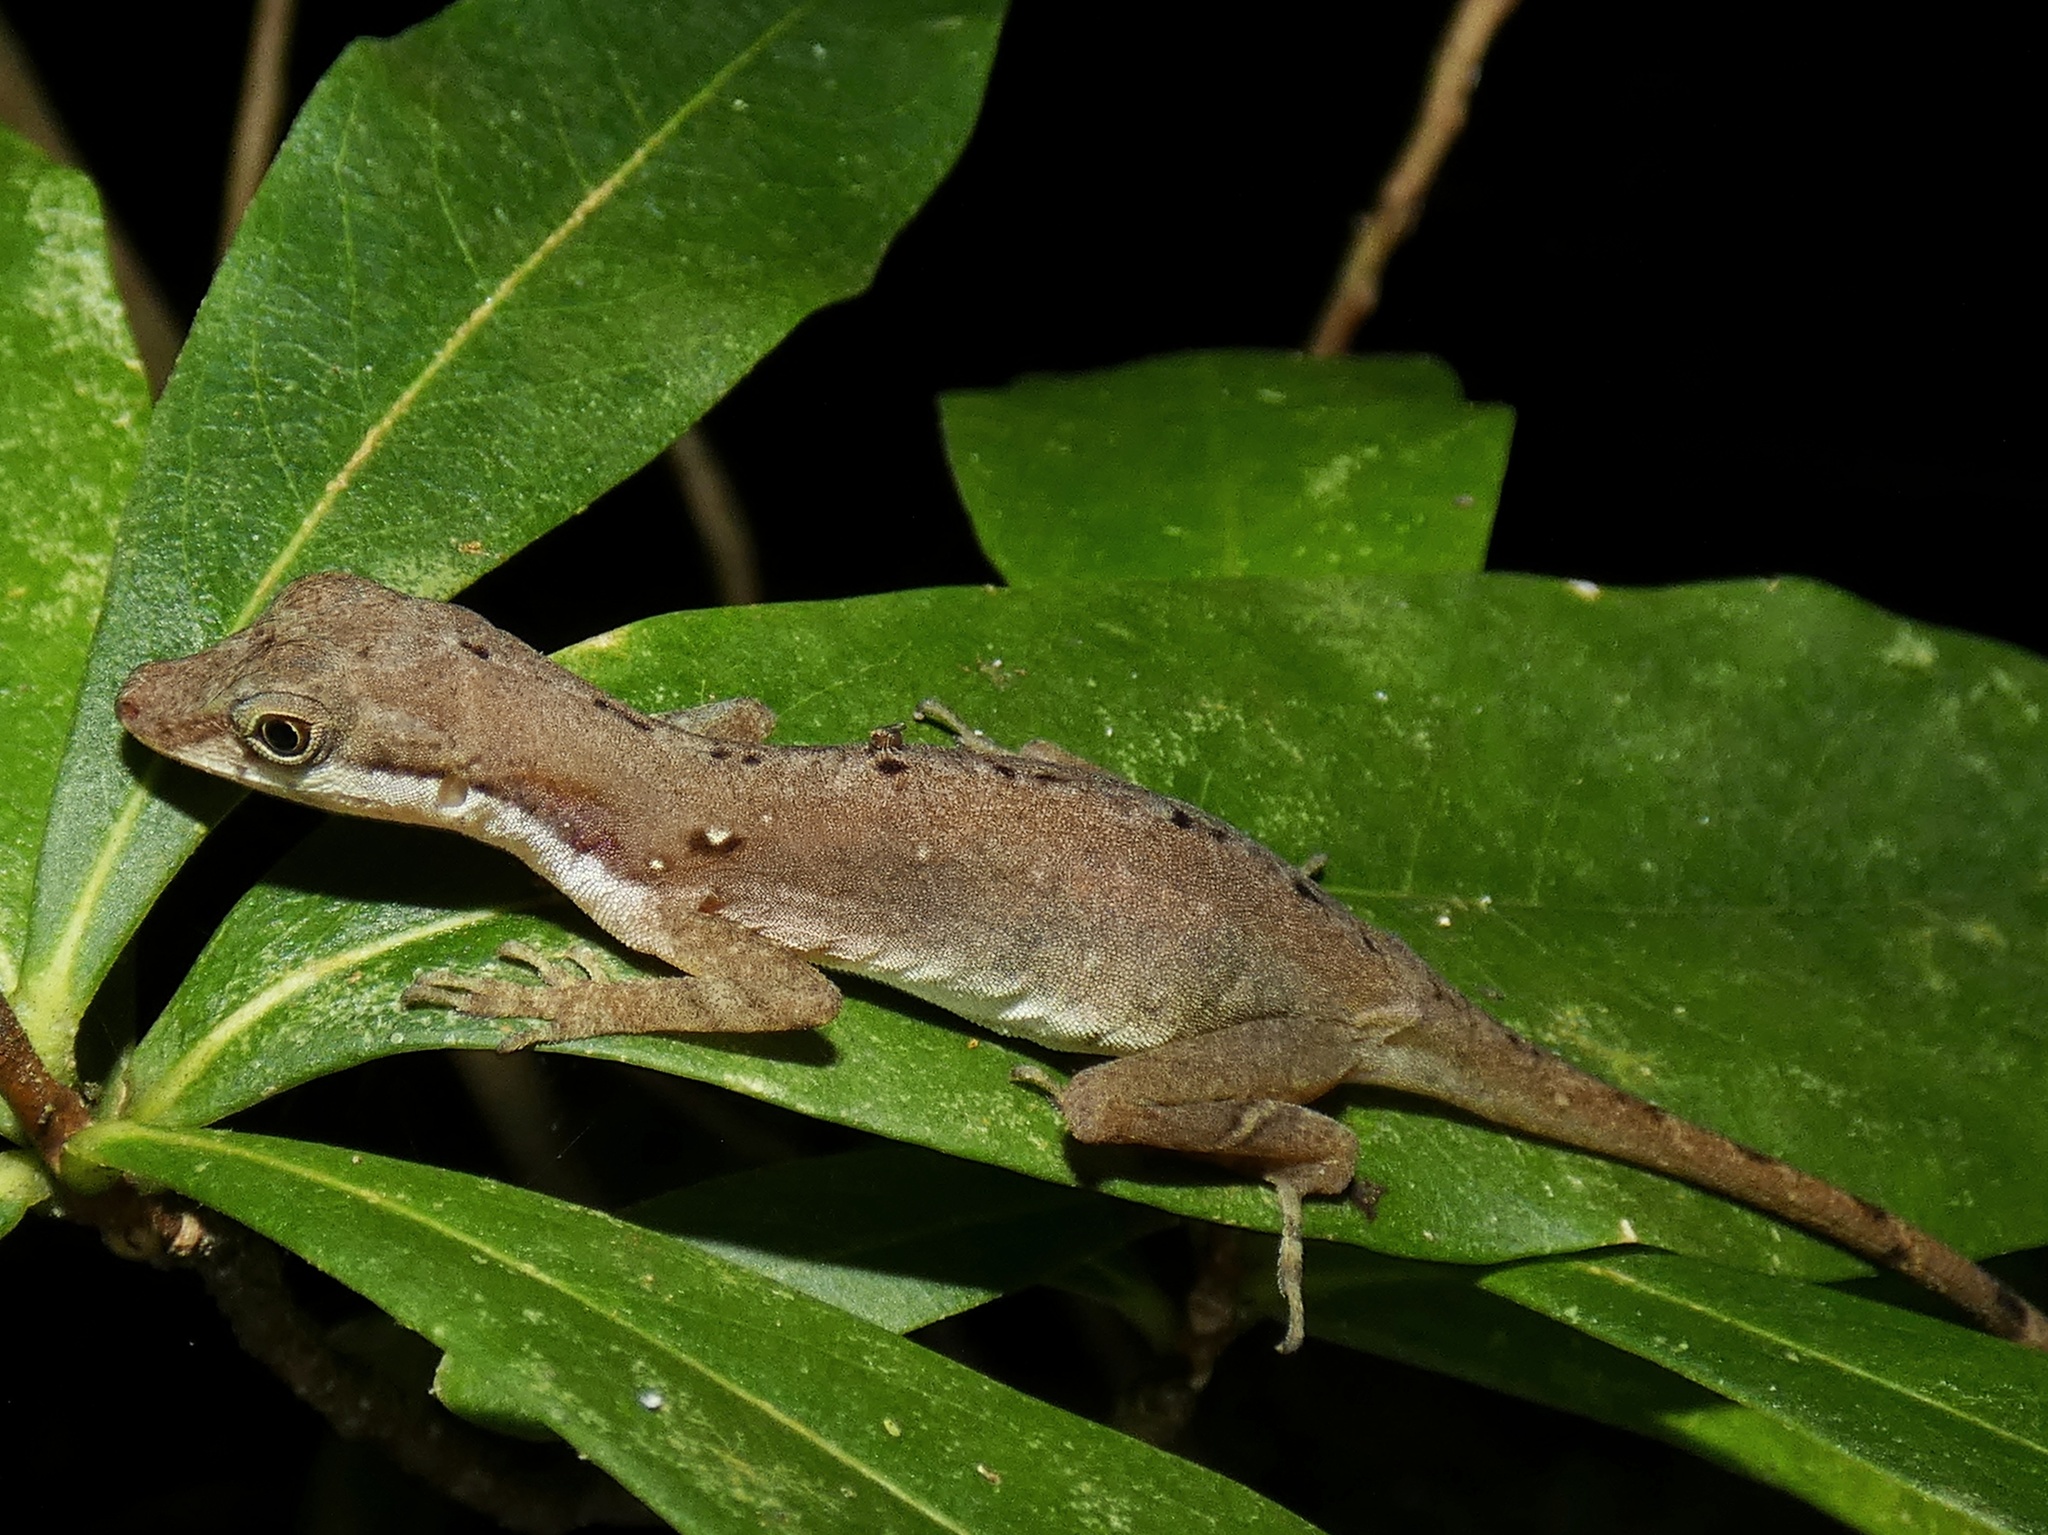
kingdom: Animalia
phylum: Chordata
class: Squamata
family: Dactyloidae
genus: Anolis
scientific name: Anolis limifrons
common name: Border anole
